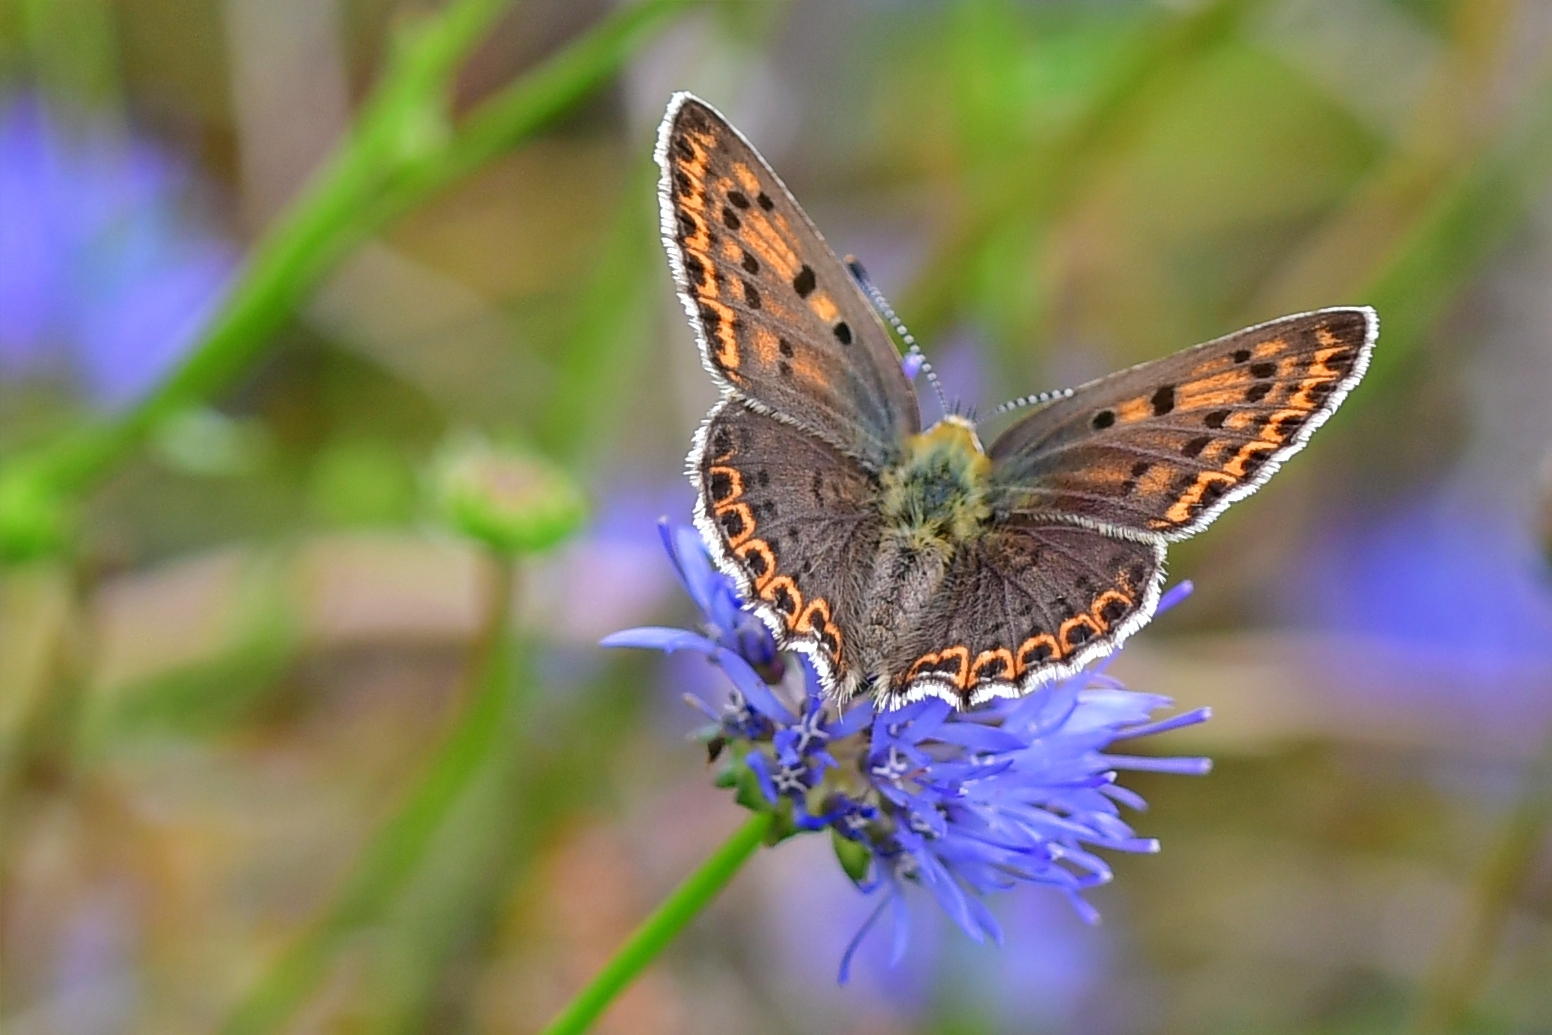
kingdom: Animalia
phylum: Arthropoda
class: Insecta
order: Lepidoptera
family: Lycaenidae
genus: Loweia
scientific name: Loweia tityrus
